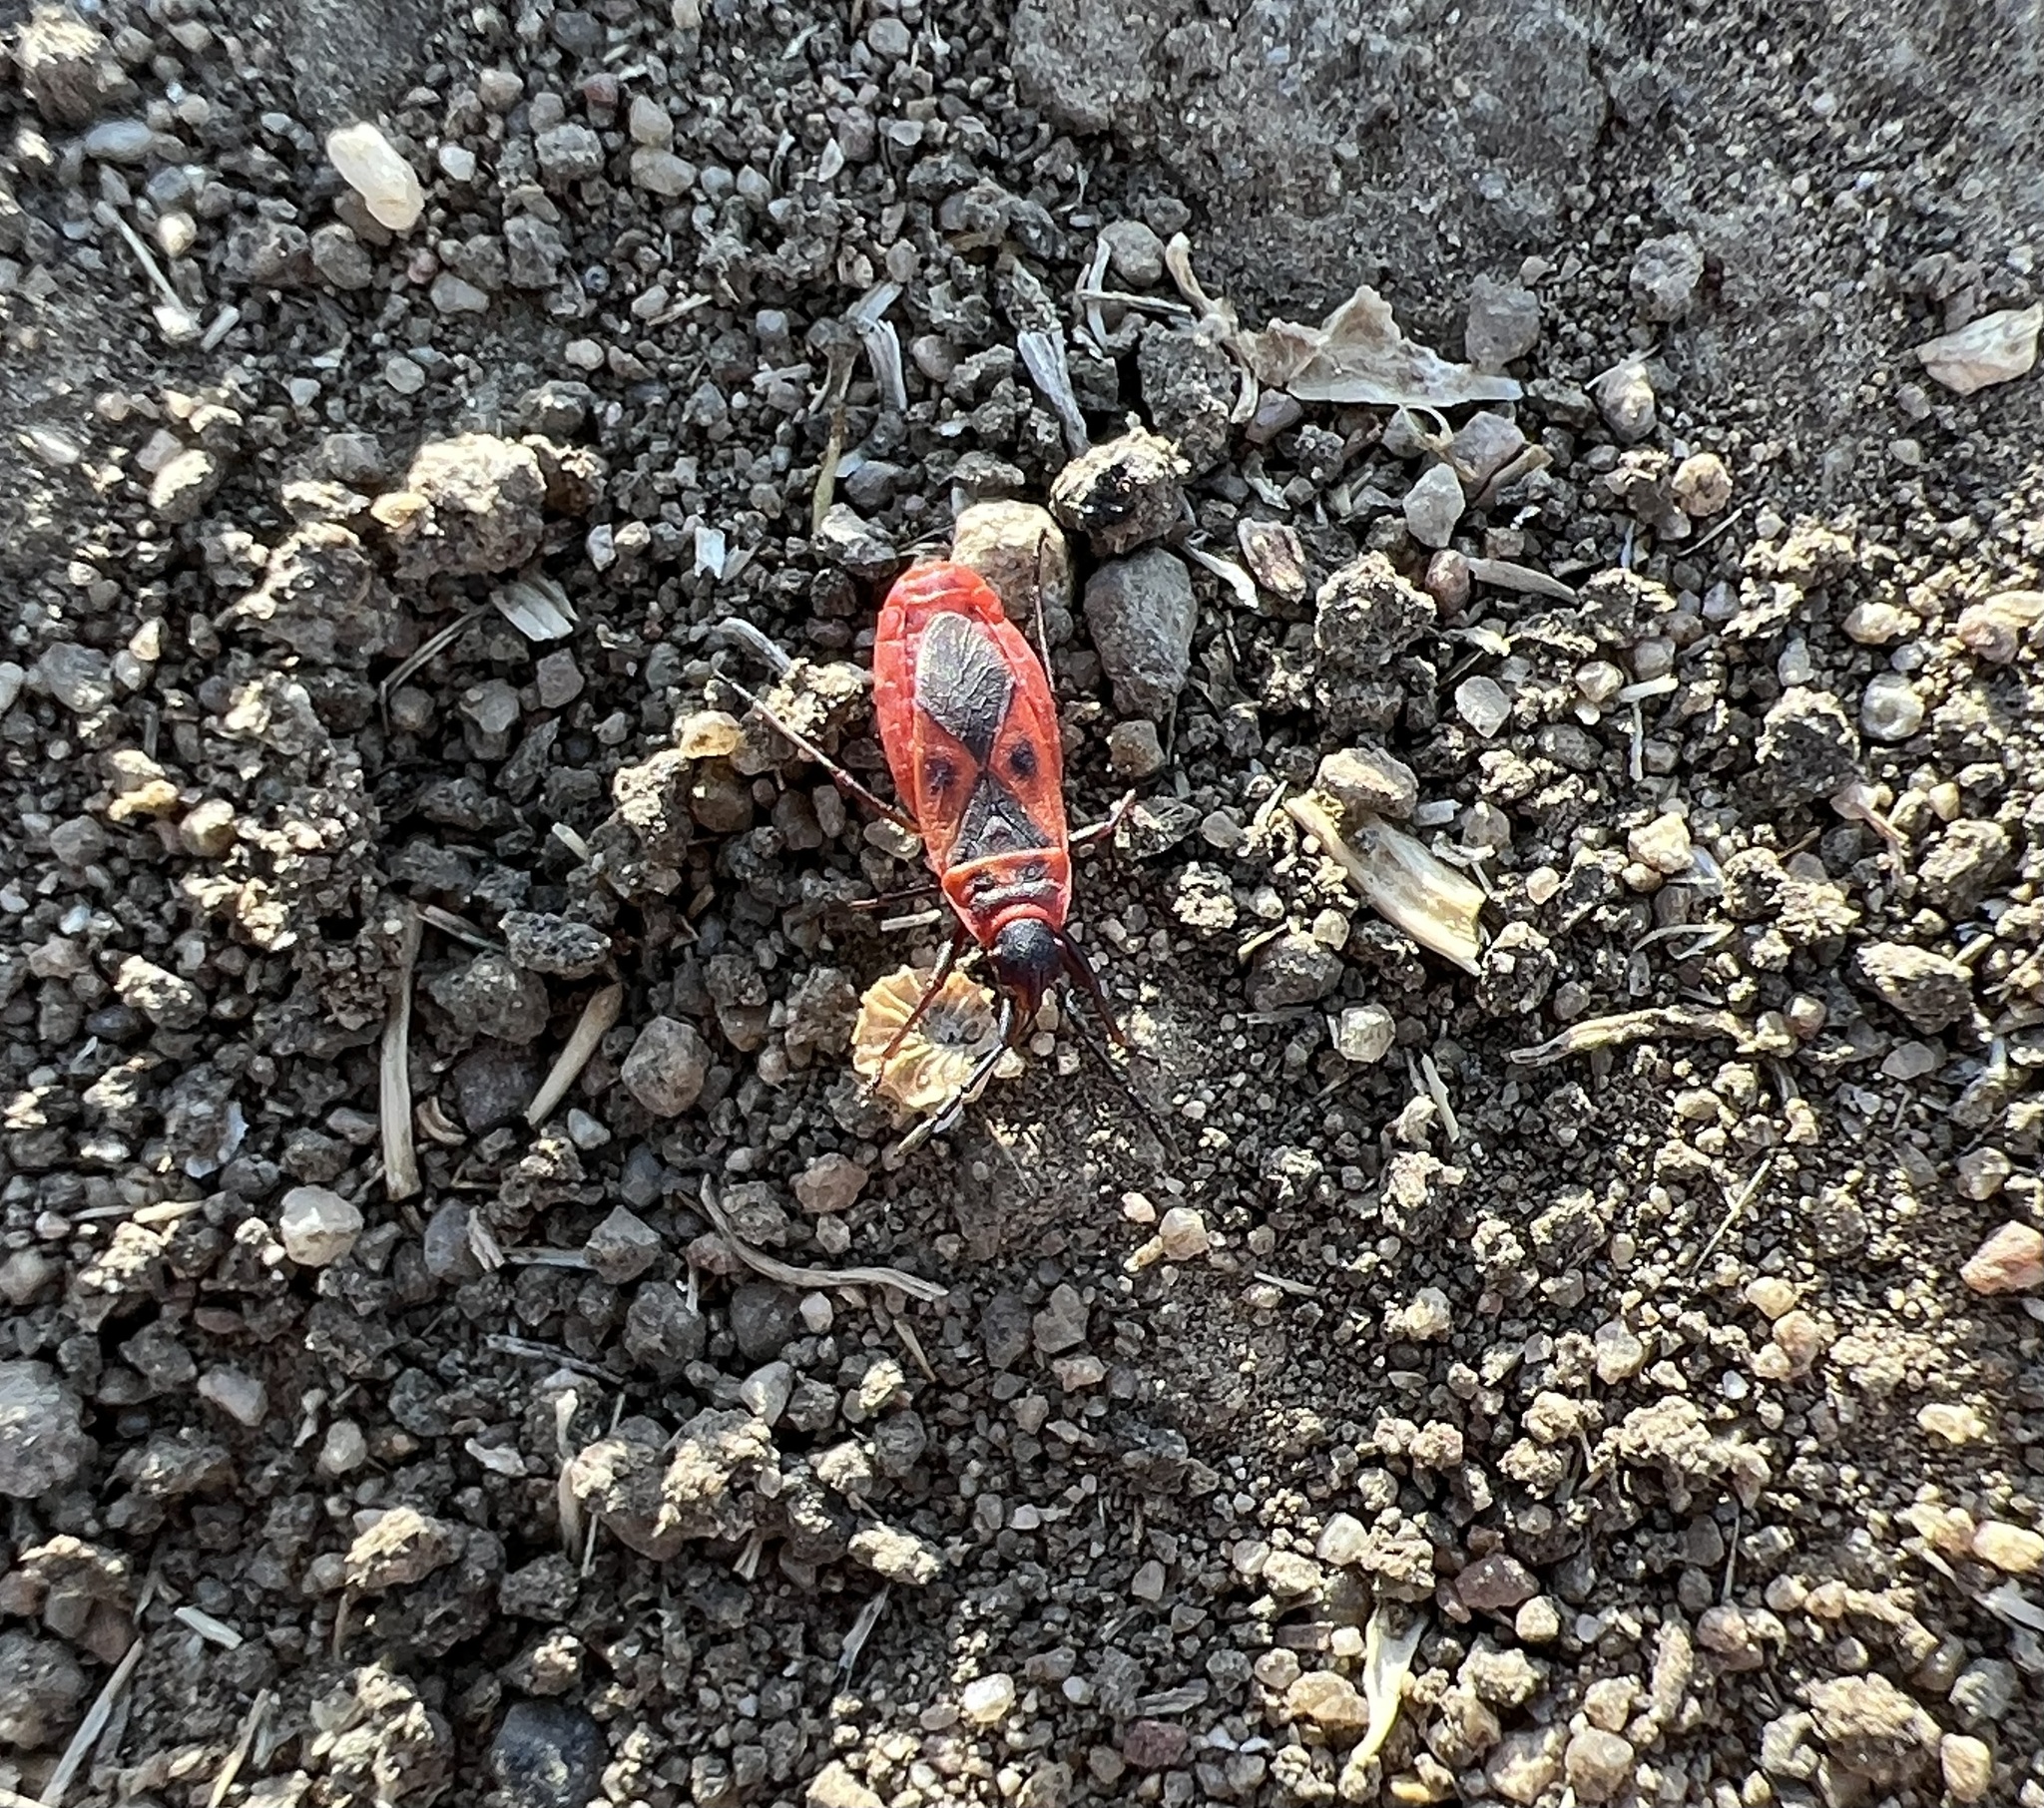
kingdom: Animalia
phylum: Arthropoda
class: Insecta
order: Hemiptera
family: Pyrrhocoridae
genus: Scantius
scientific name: Scantius aegyptius
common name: Red bug
